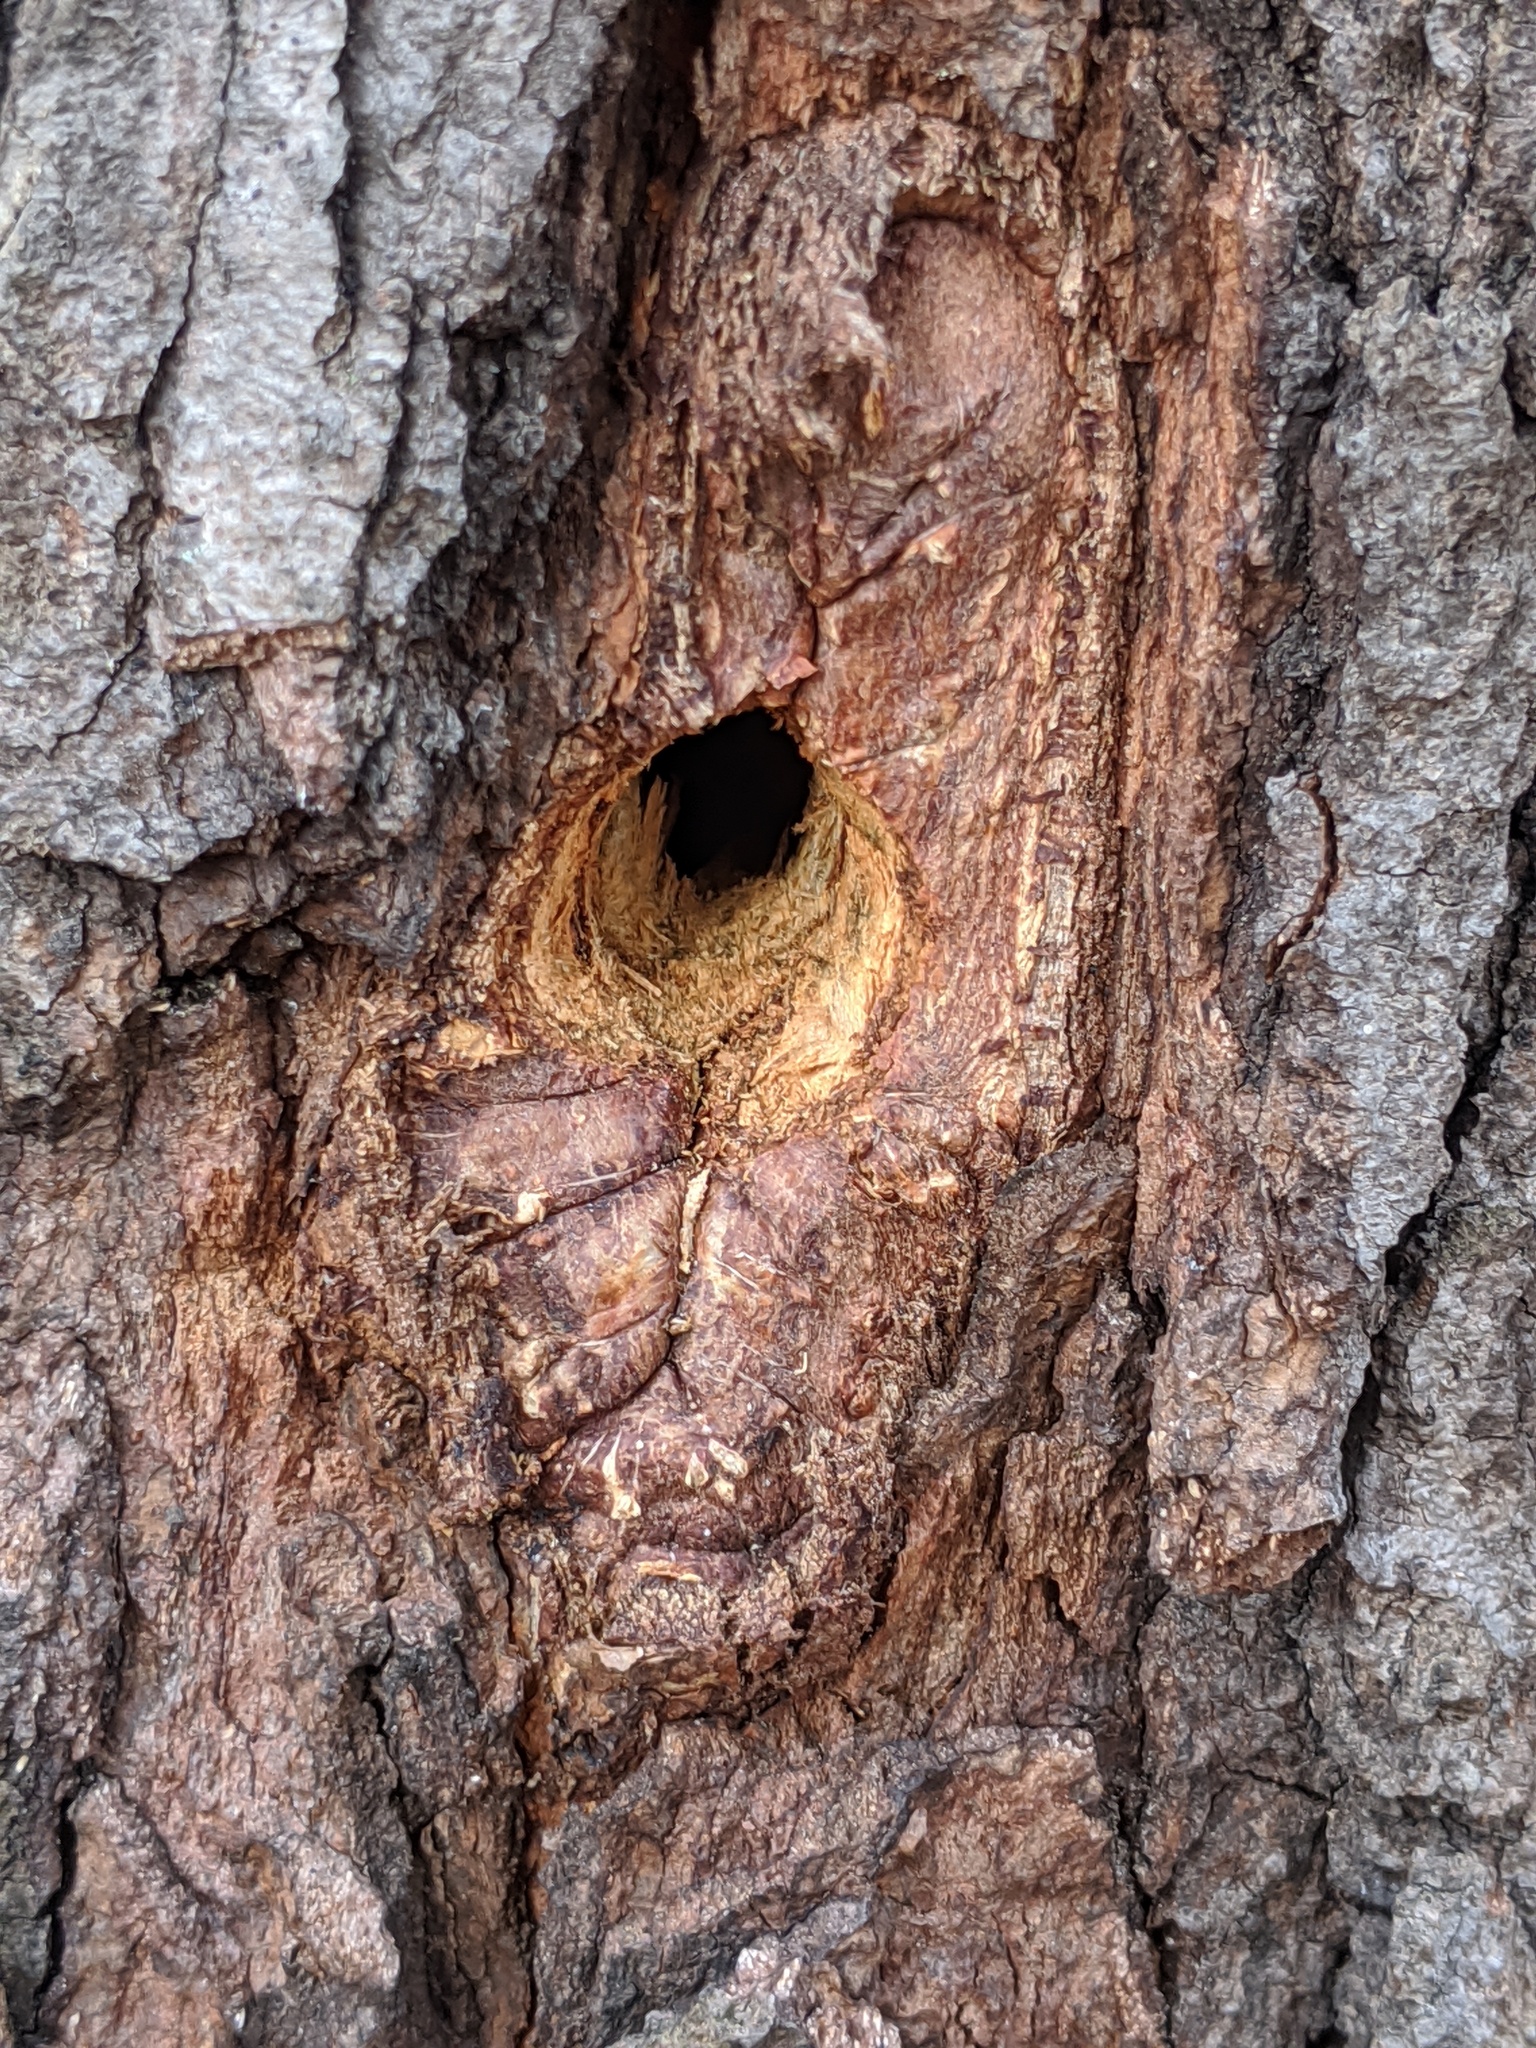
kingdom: Animalia
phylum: Chordata
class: Aves
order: Piciformes
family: Picidae
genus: Dryocopus
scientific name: Dryocopus pileatus
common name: Pileated woodpecker
